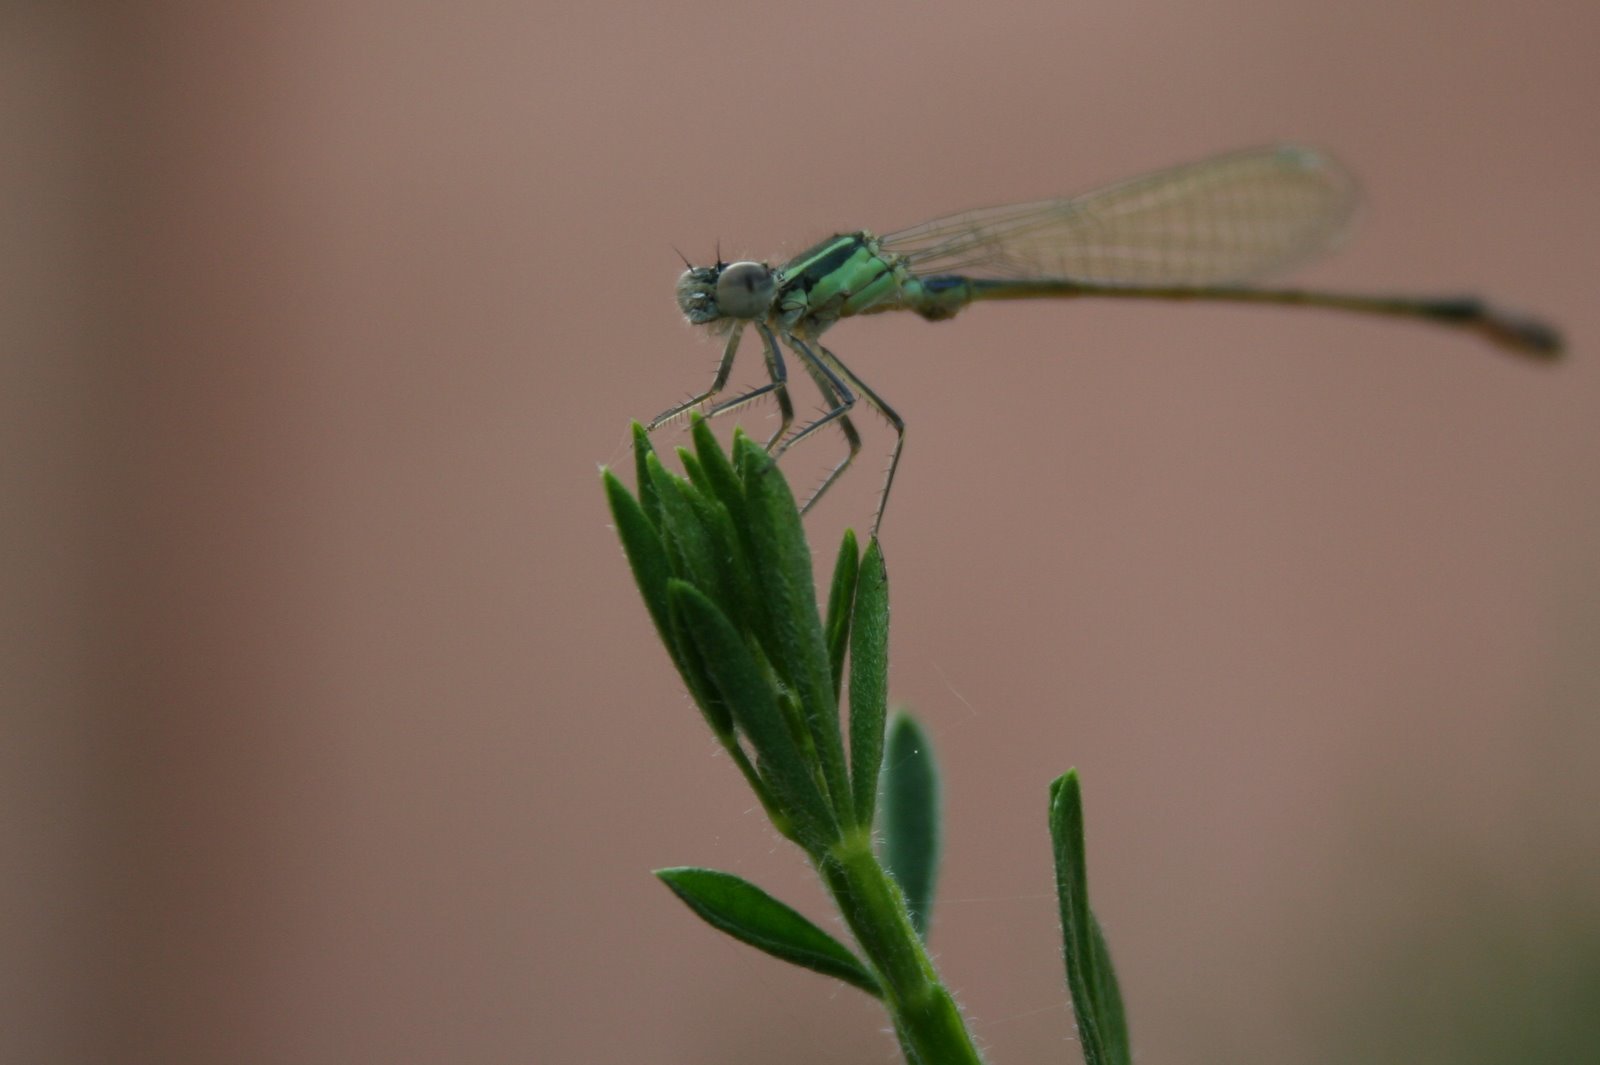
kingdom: Animalia
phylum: Arthropoda
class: Insecta
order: Odonata
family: Coenagrionidae
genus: Ischnura
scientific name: Ischnura elegans
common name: Blue-tailed damselfly
